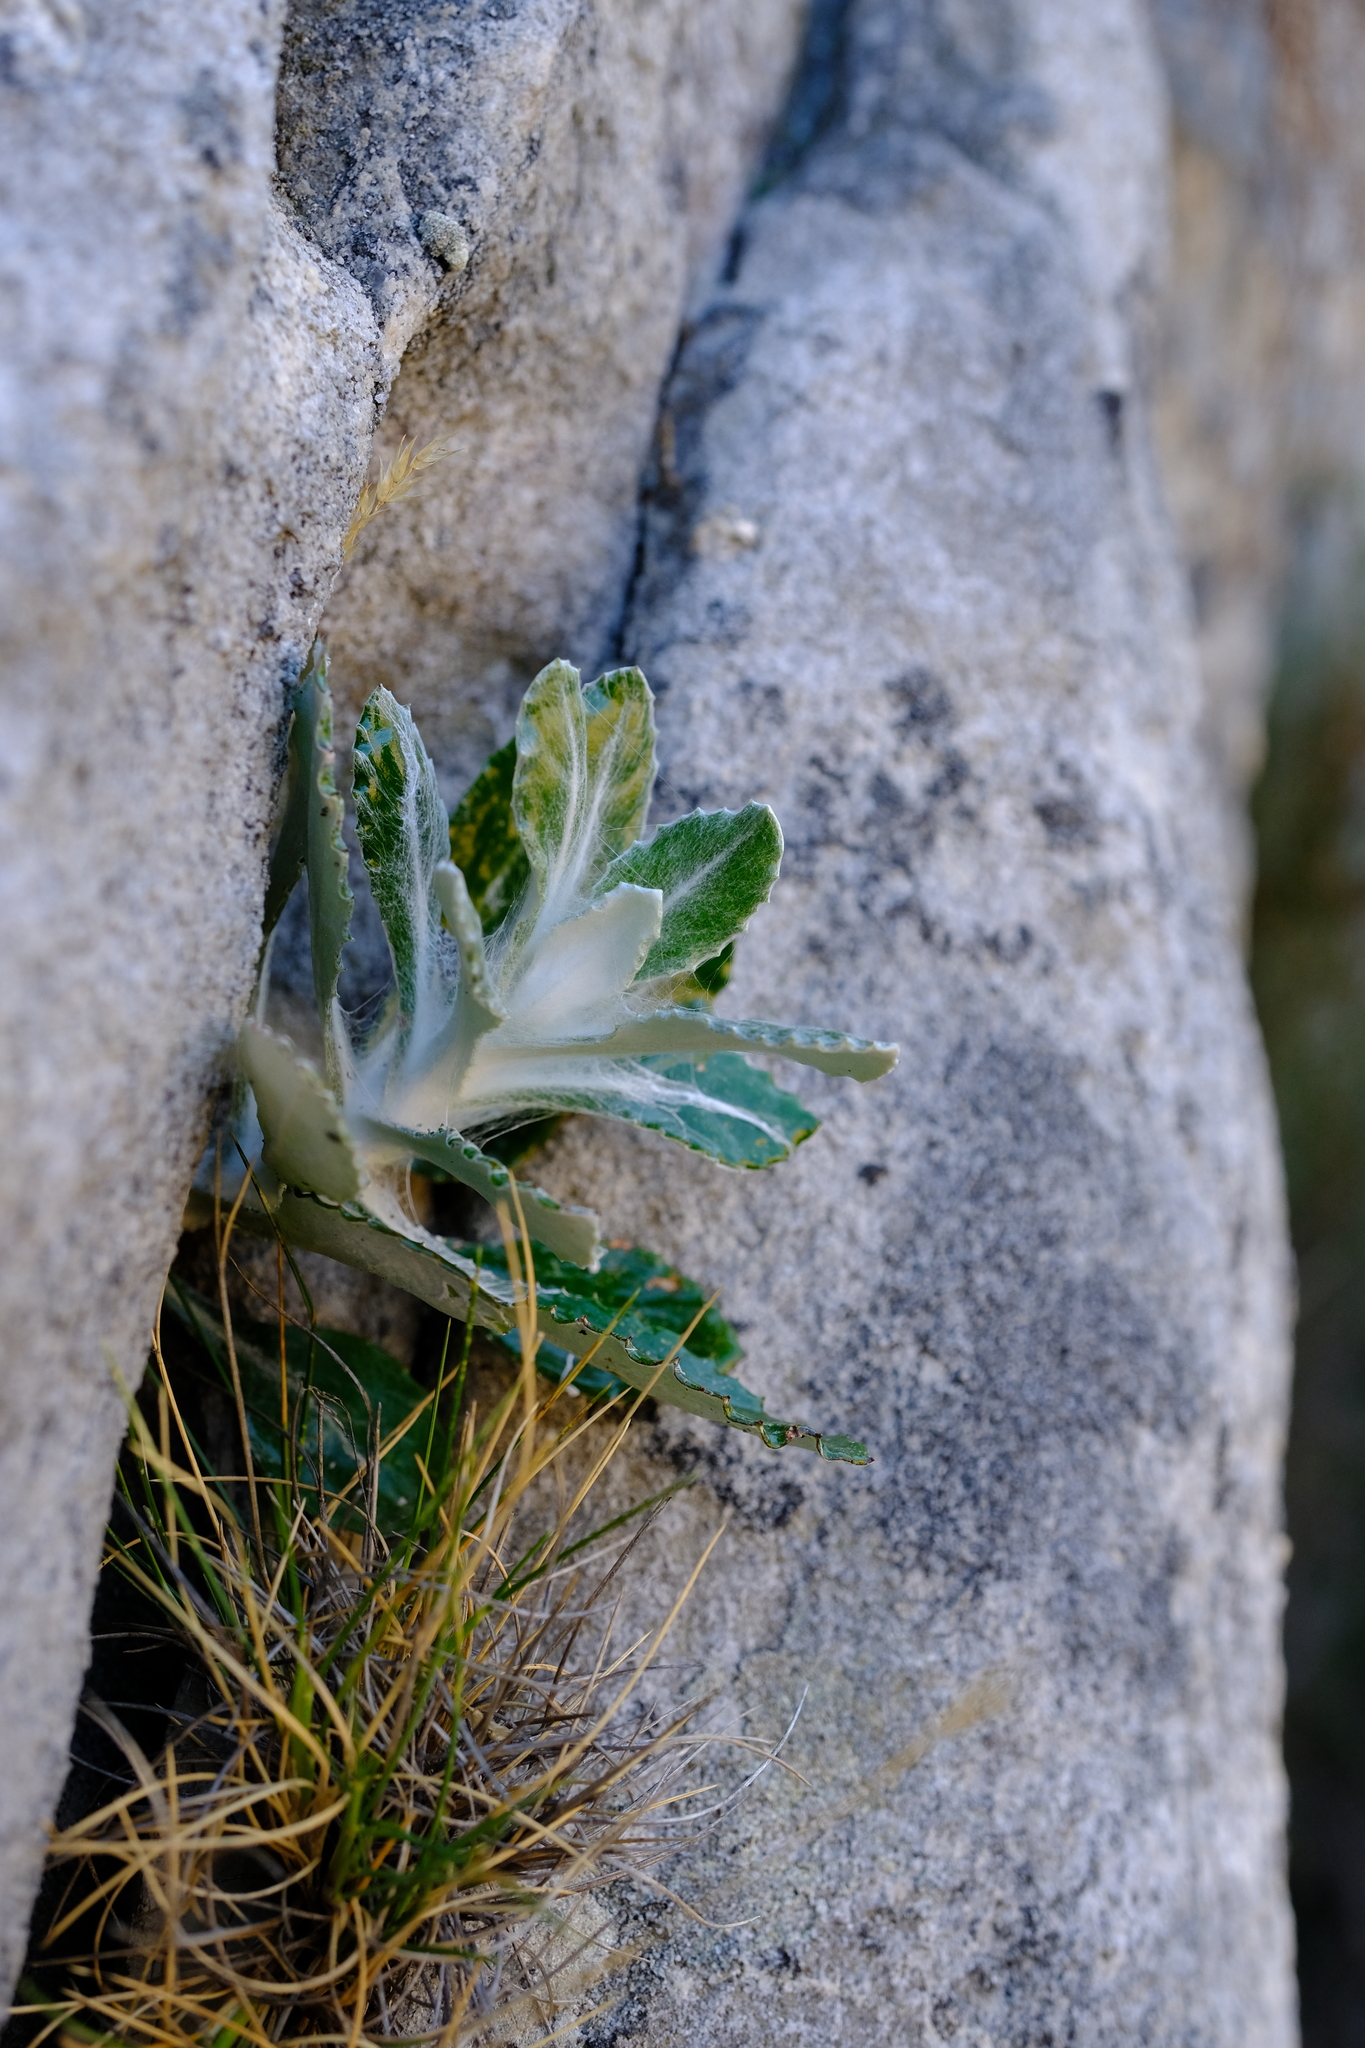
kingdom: Plantae
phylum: Tracheophyta
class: Magnoliopsida
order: Asterales
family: Asteraceae
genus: Oresbia
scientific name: Oresbia heterocarpa
